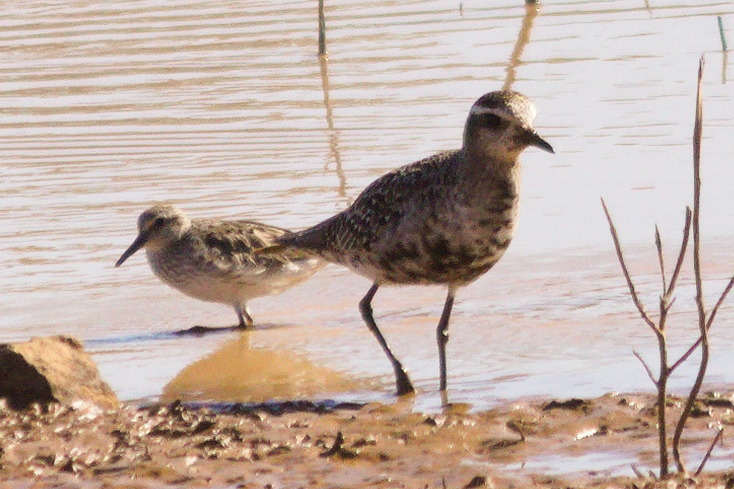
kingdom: Animalia
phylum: Chordata
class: Aves
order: Charadriiformes
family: Charadriidae
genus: Pluvialis
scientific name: Pluvialis dominica
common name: American golden plover
